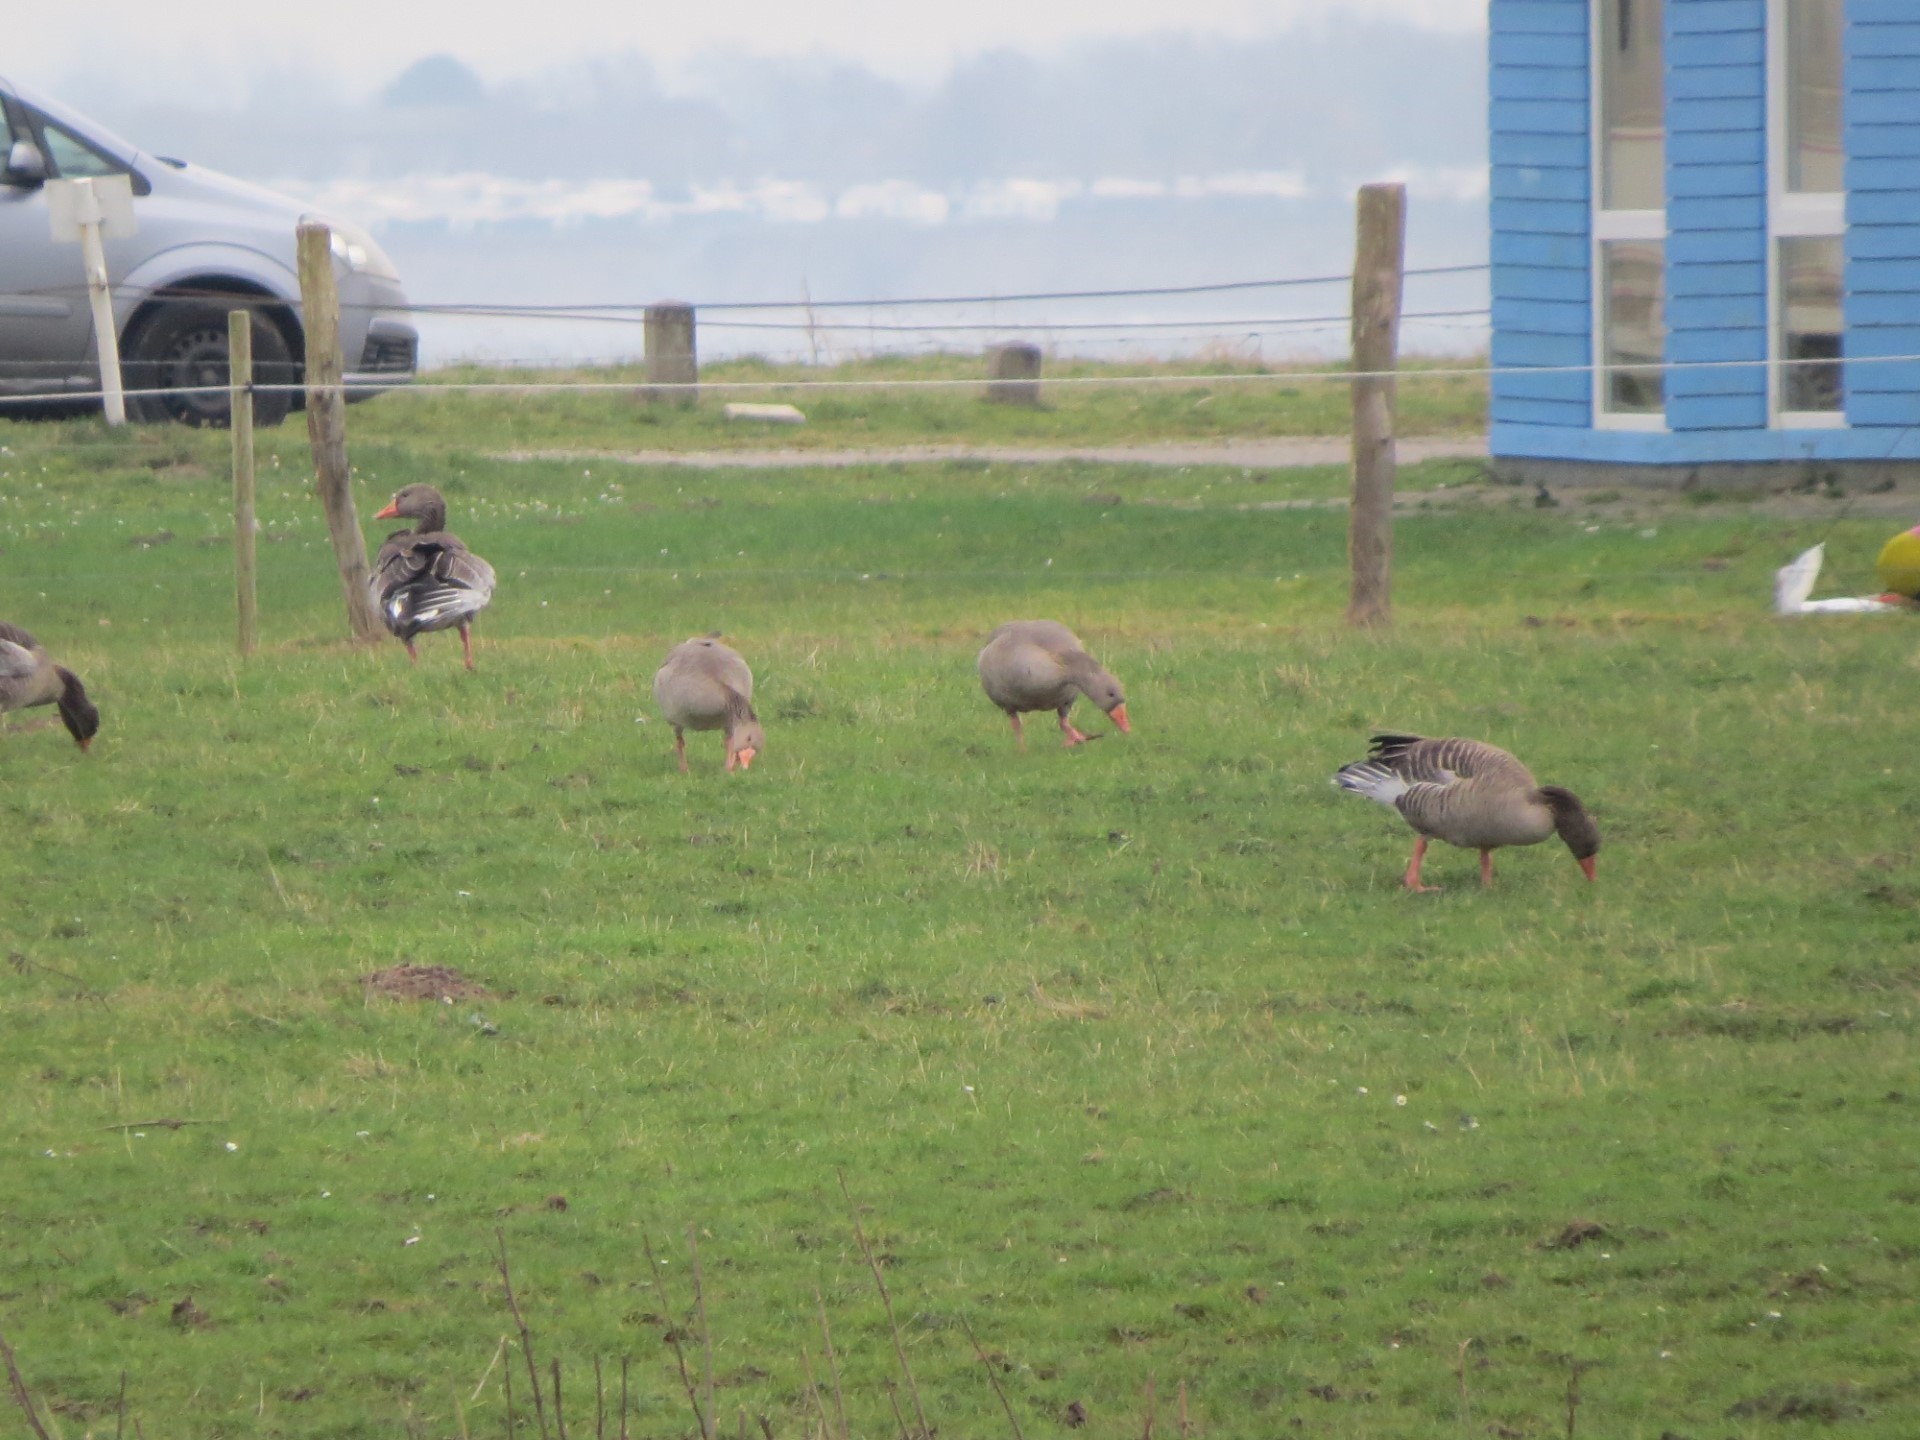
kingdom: Animalia
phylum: Chordata
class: Aves
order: Anseriformes
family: Anatidae
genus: Anser
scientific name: Anser anser
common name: Greylag goose
